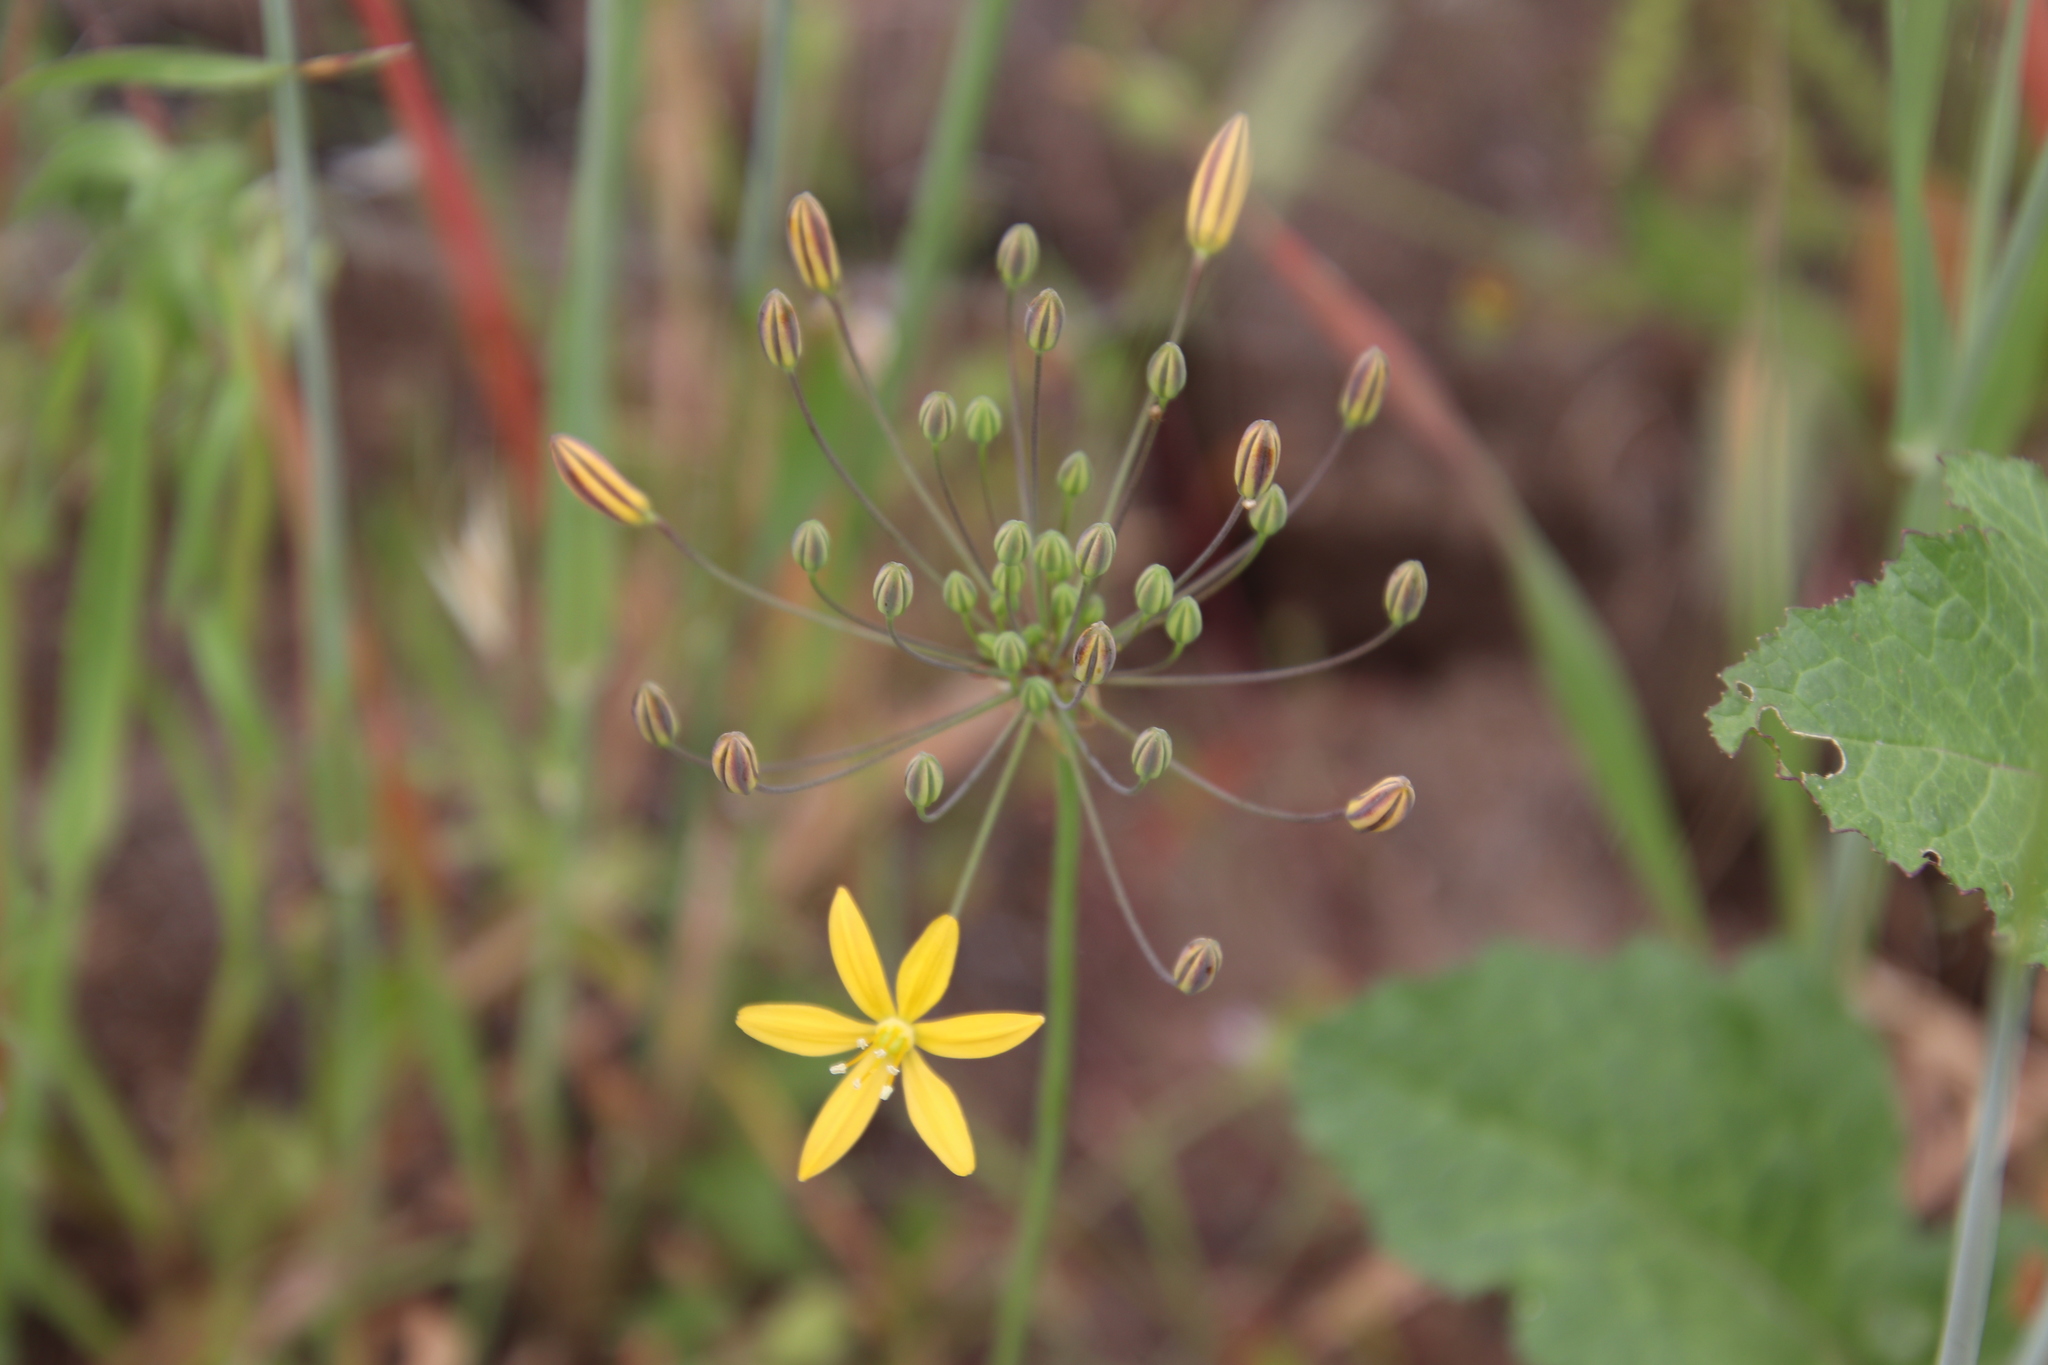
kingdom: Plantae
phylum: Tracheophyta
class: Liliopsida
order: Asparagales
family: Asparagaceae
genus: Bloomeria
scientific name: Bloomeria crocea
